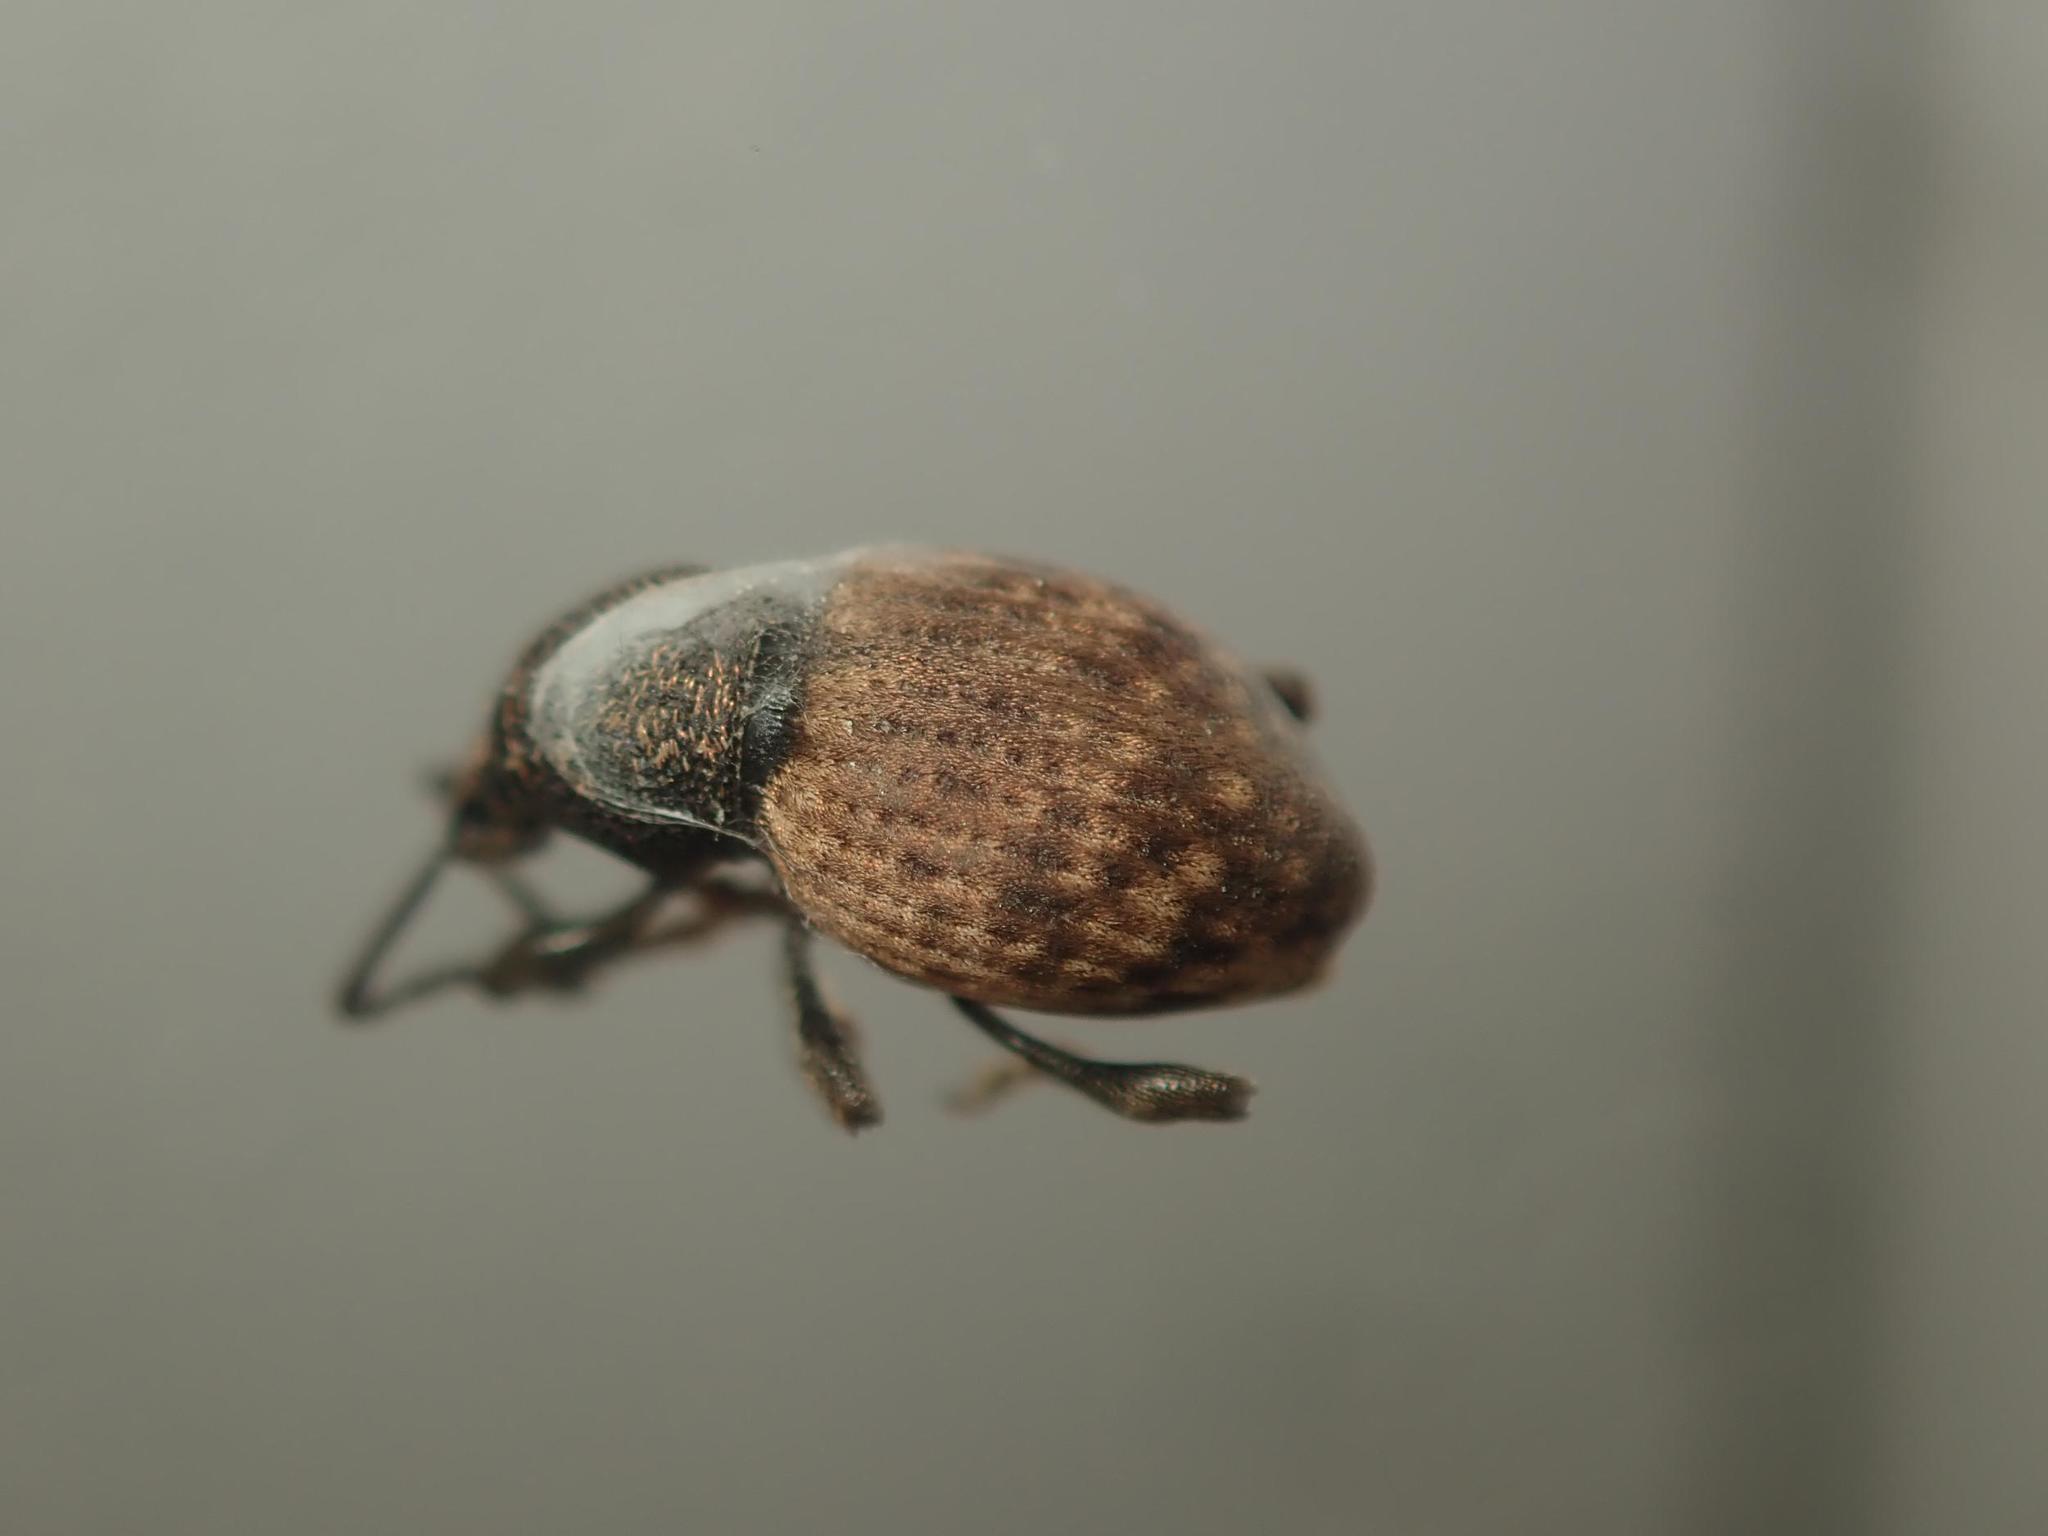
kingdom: Animalia
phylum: Arthropoda
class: Insecta
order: Coleoptera
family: Curculionidae
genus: Otiorhynchus
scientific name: Otiorhynchus raucus
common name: Weevil
